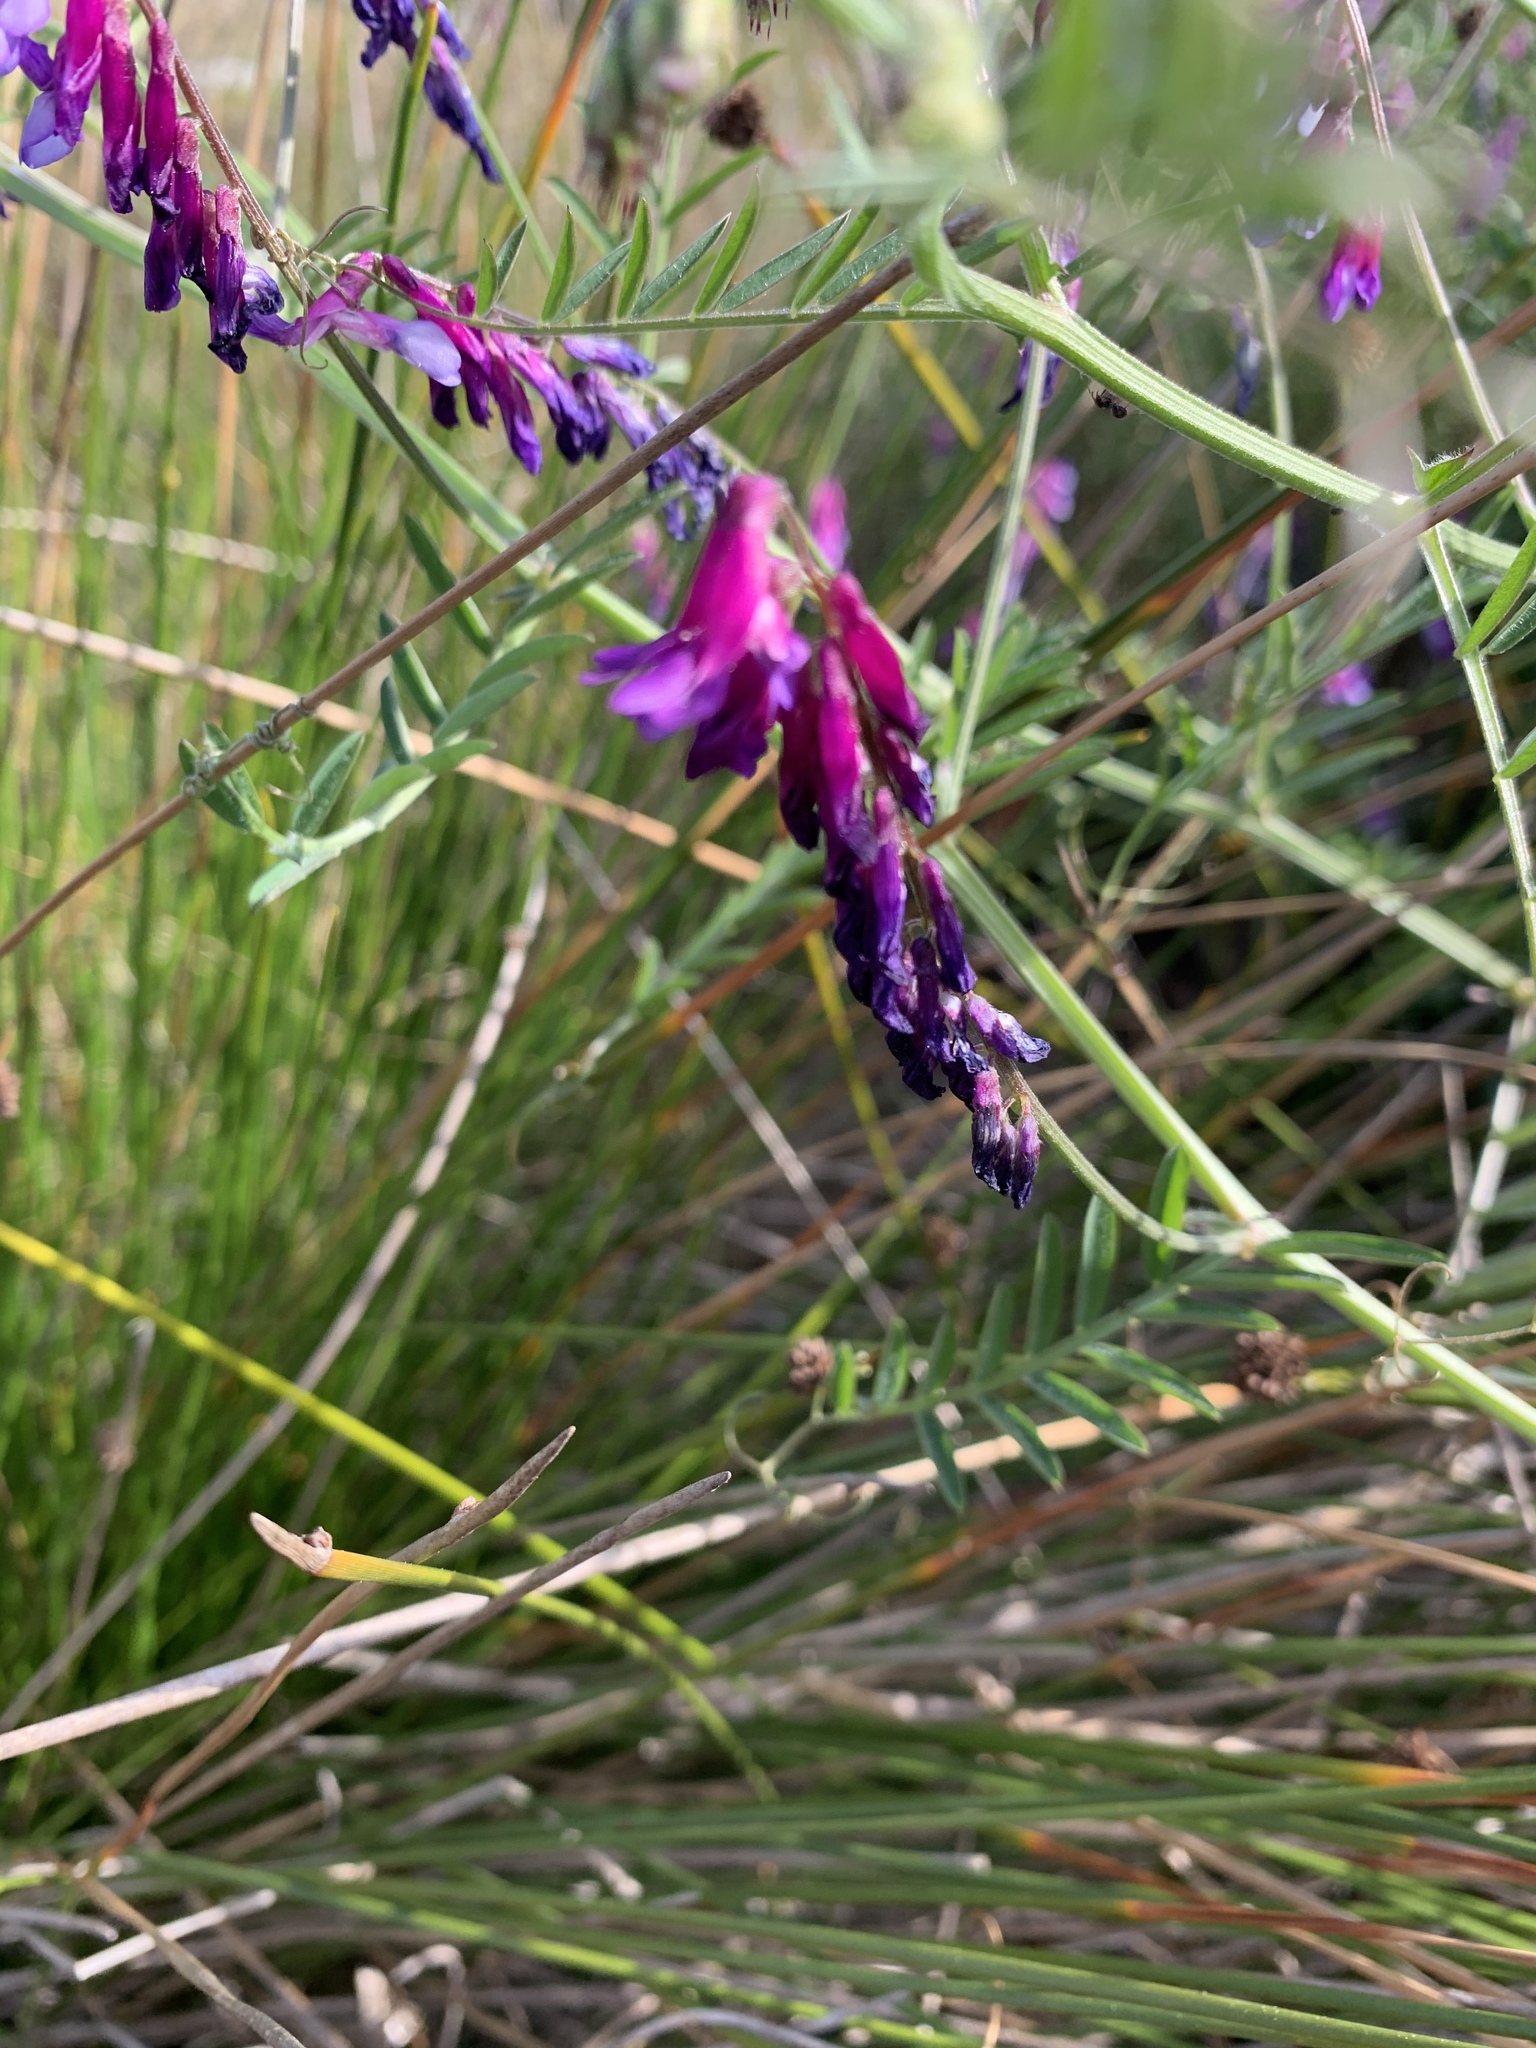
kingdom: Plantae
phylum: Tracheophyta
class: Magnoliopsida
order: Fabales
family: Fabaceae
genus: Vicia
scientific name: Vicia villosa
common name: Fodder vetch
